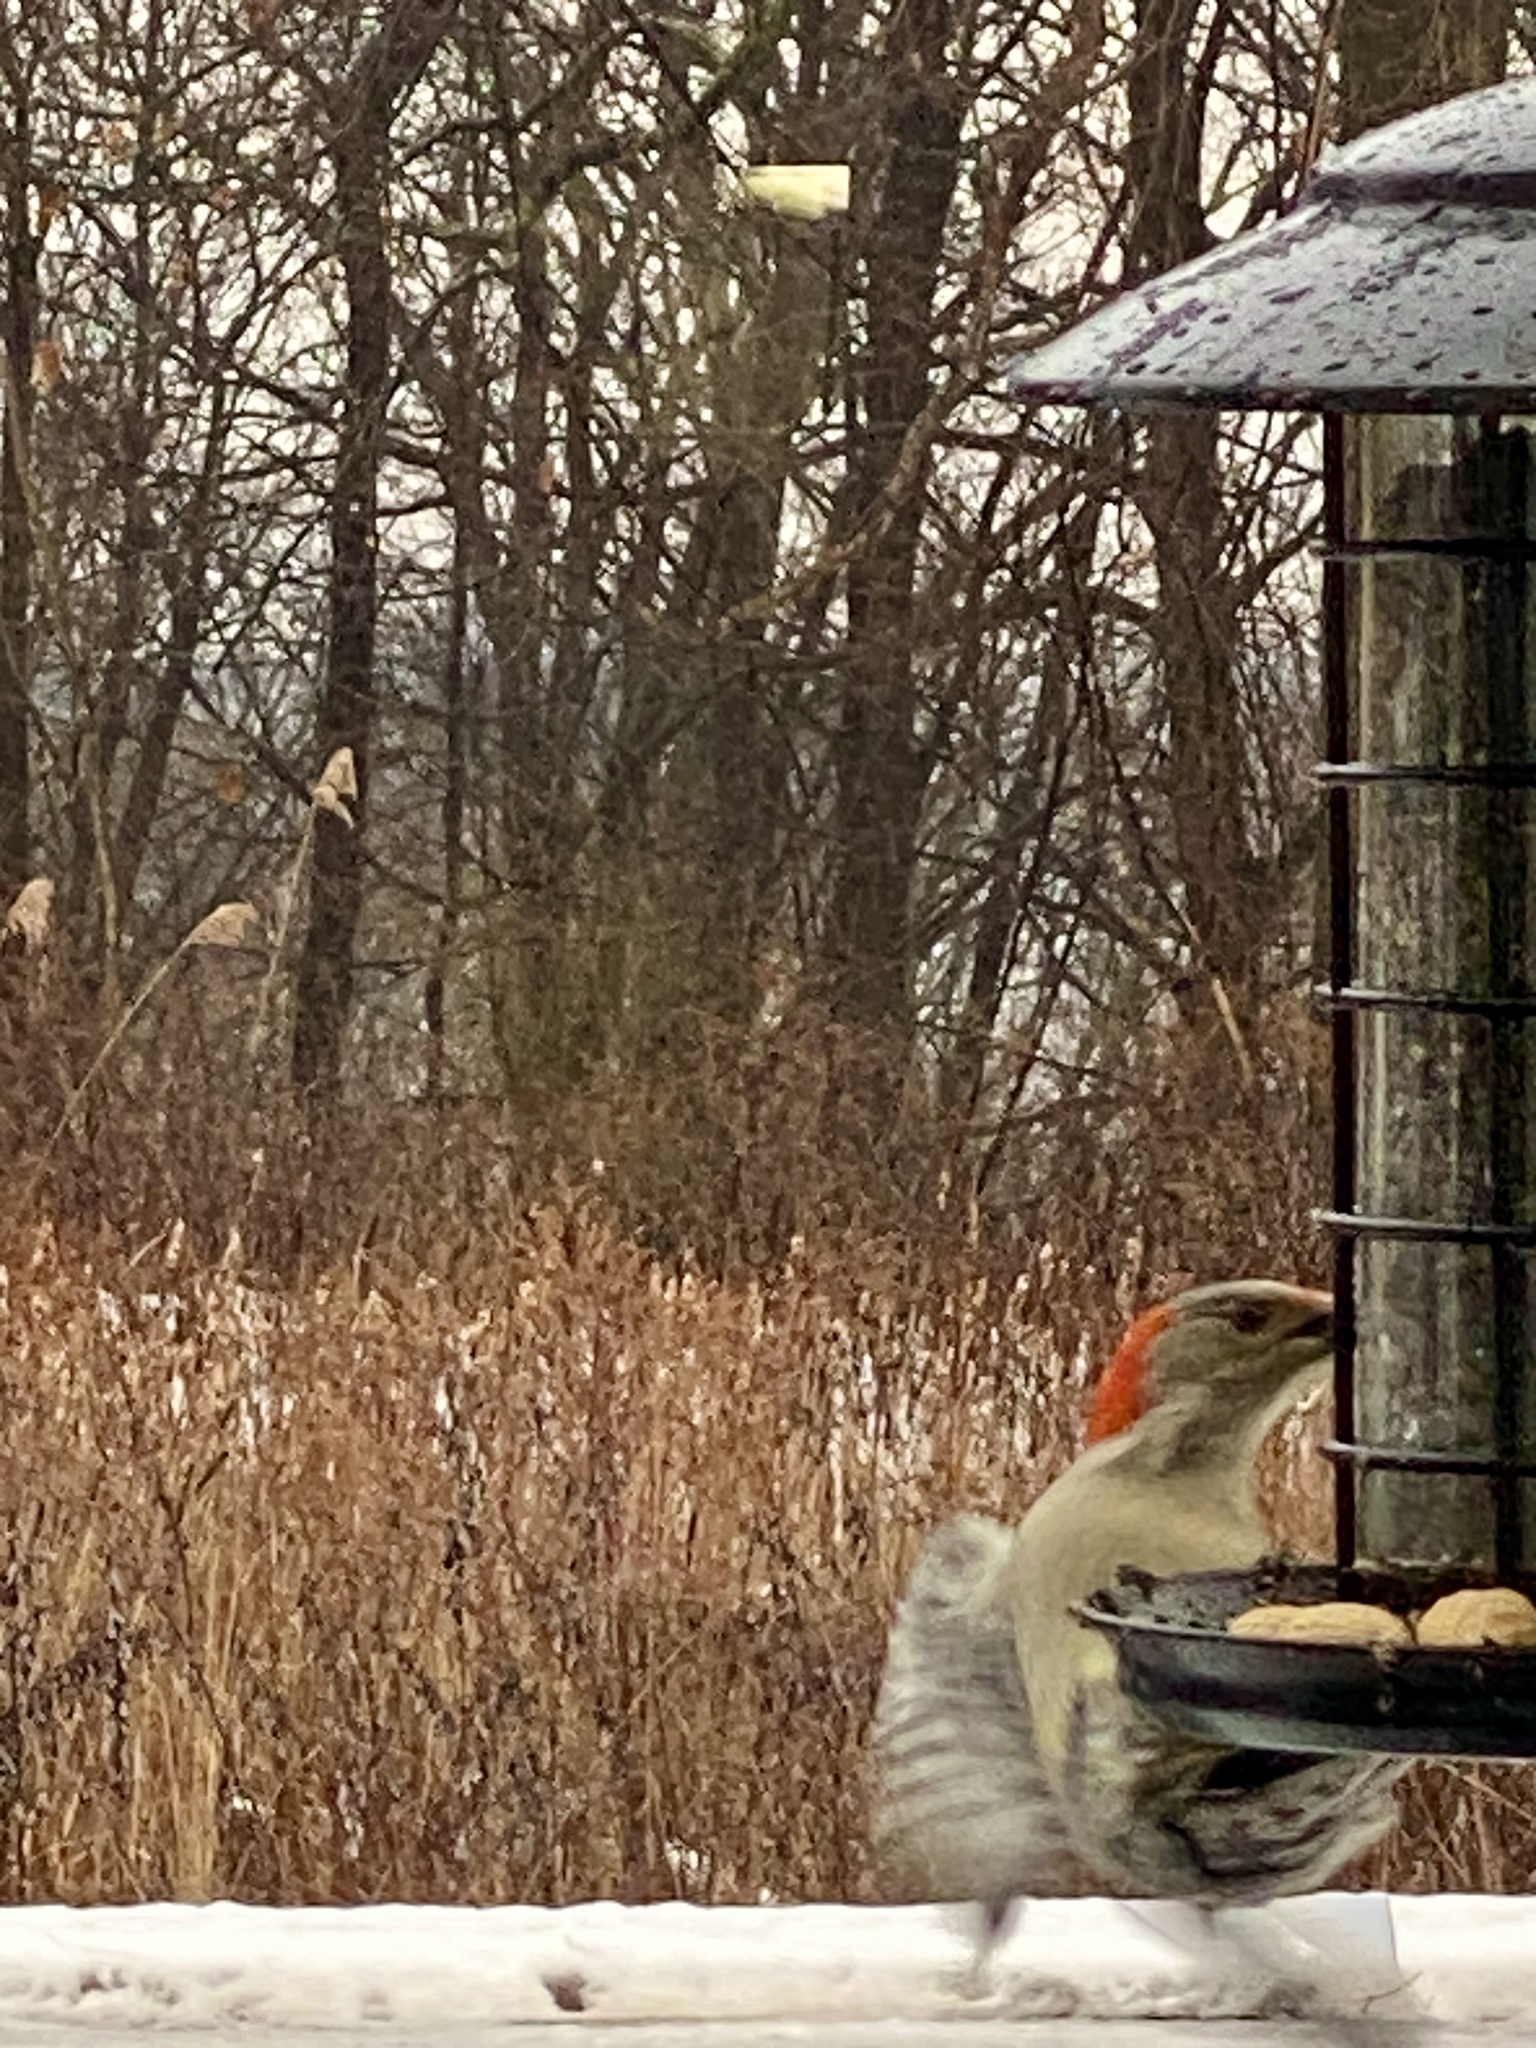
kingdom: Animalia
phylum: Chordata
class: Aves
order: Piciformes
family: Picidae
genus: Melanerpes
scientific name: Melanerpes carolinus
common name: Red-bellied woodpecker
